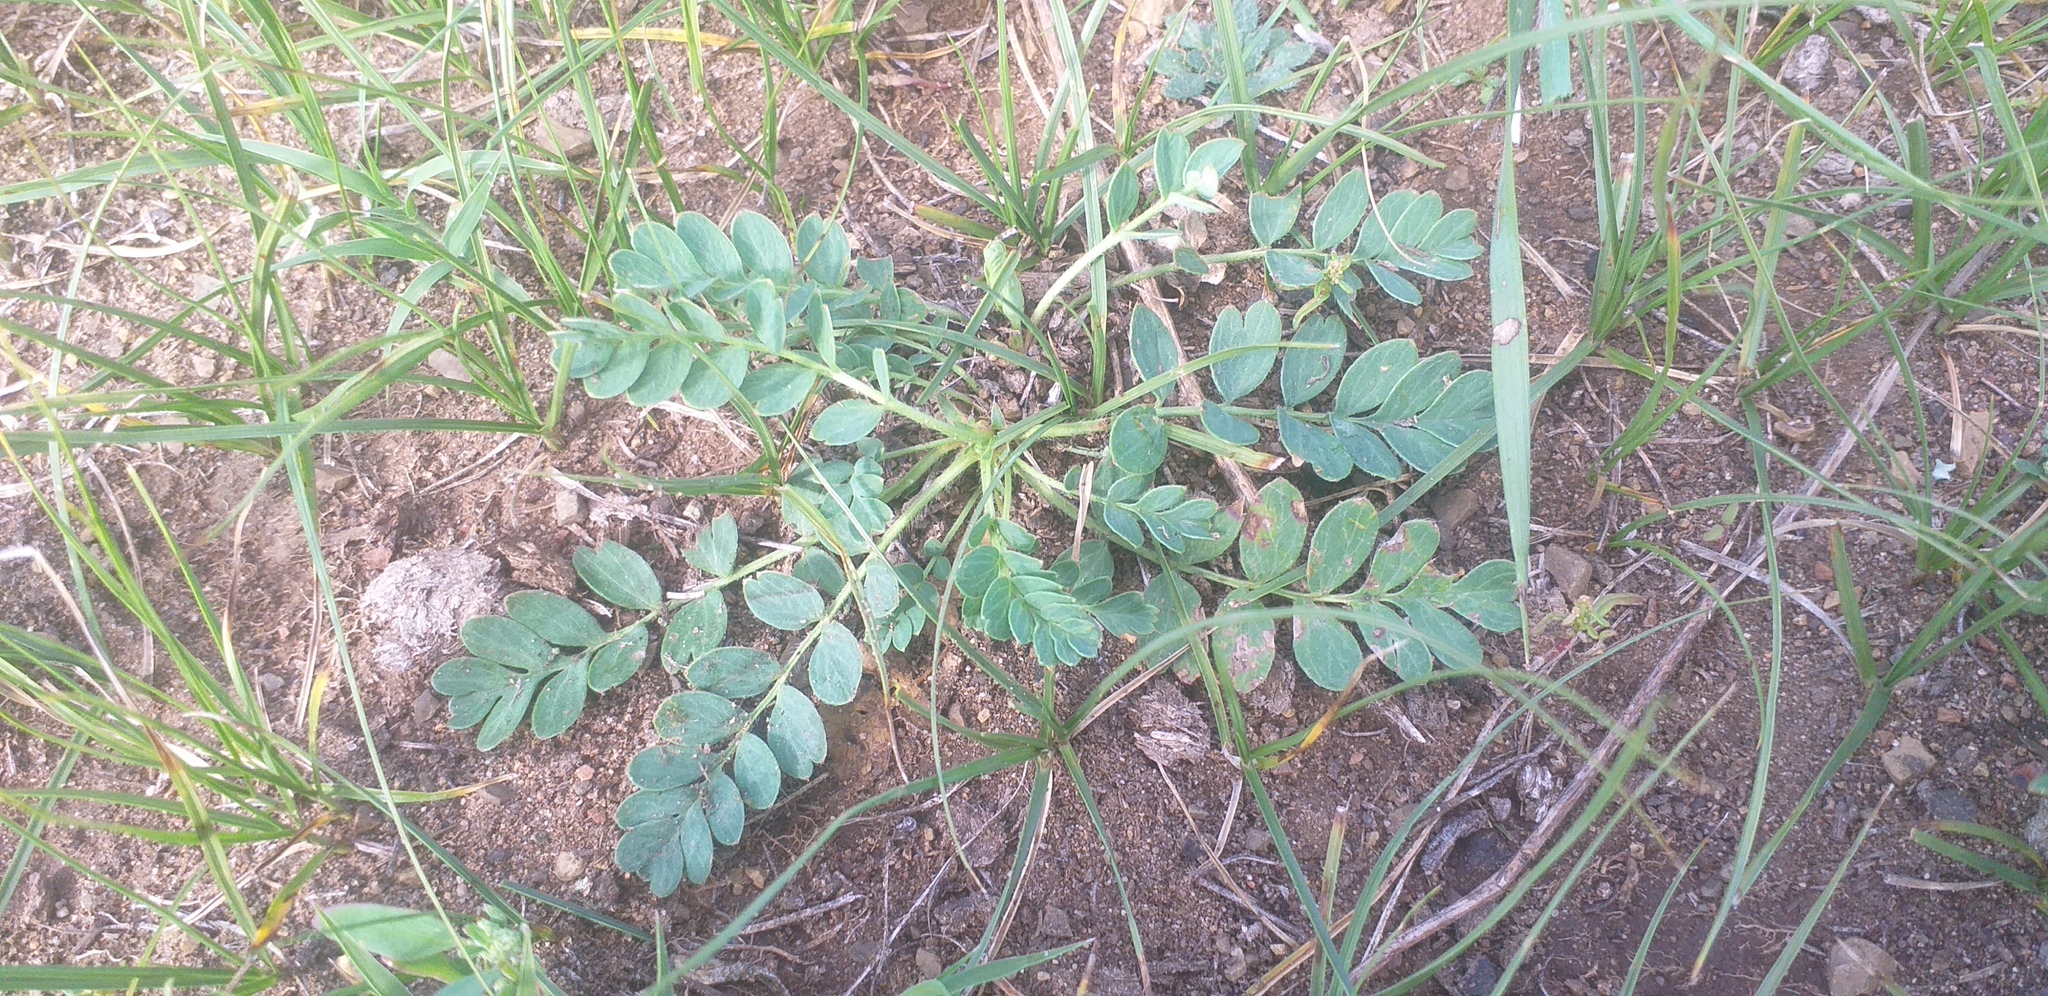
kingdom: Plantae
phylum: Tracheophyta
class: Magnoliopsida
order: Rosales
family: Rosaceae
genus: Sibbaldianthe
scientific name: Sibbaldianthe bifurca
